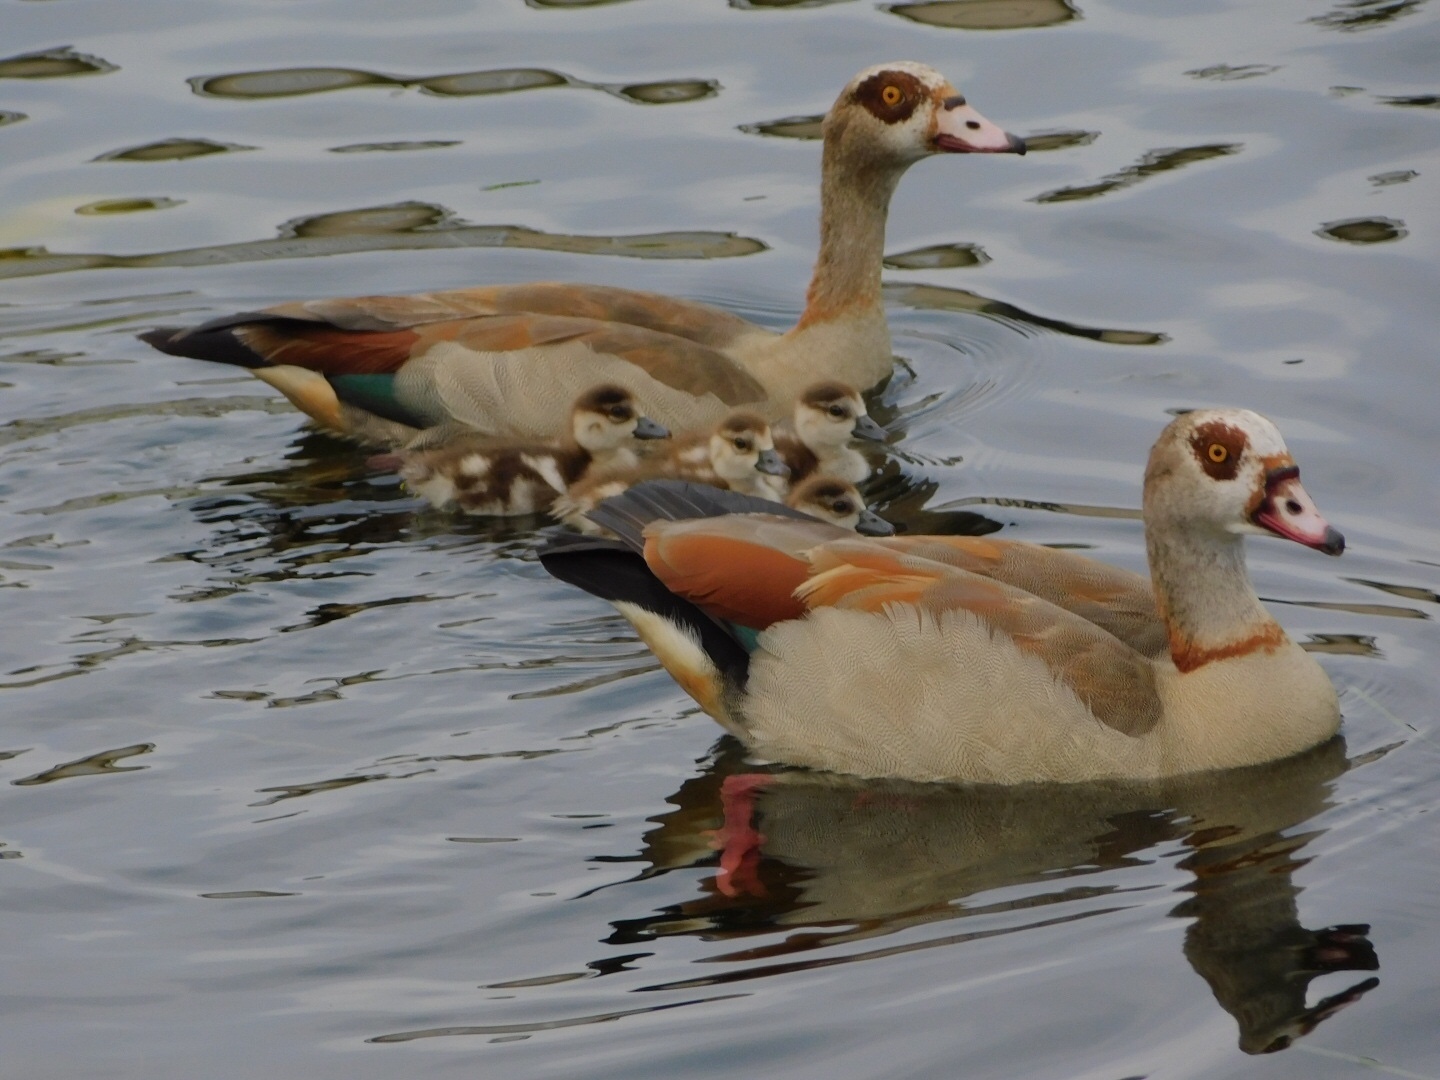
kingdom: Animalia
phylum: Chordata
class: Aves
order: Anseriformes
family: Anatidae
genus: Alopochen
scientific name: Alopochen aegyptiaca
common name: Egyptian goose
